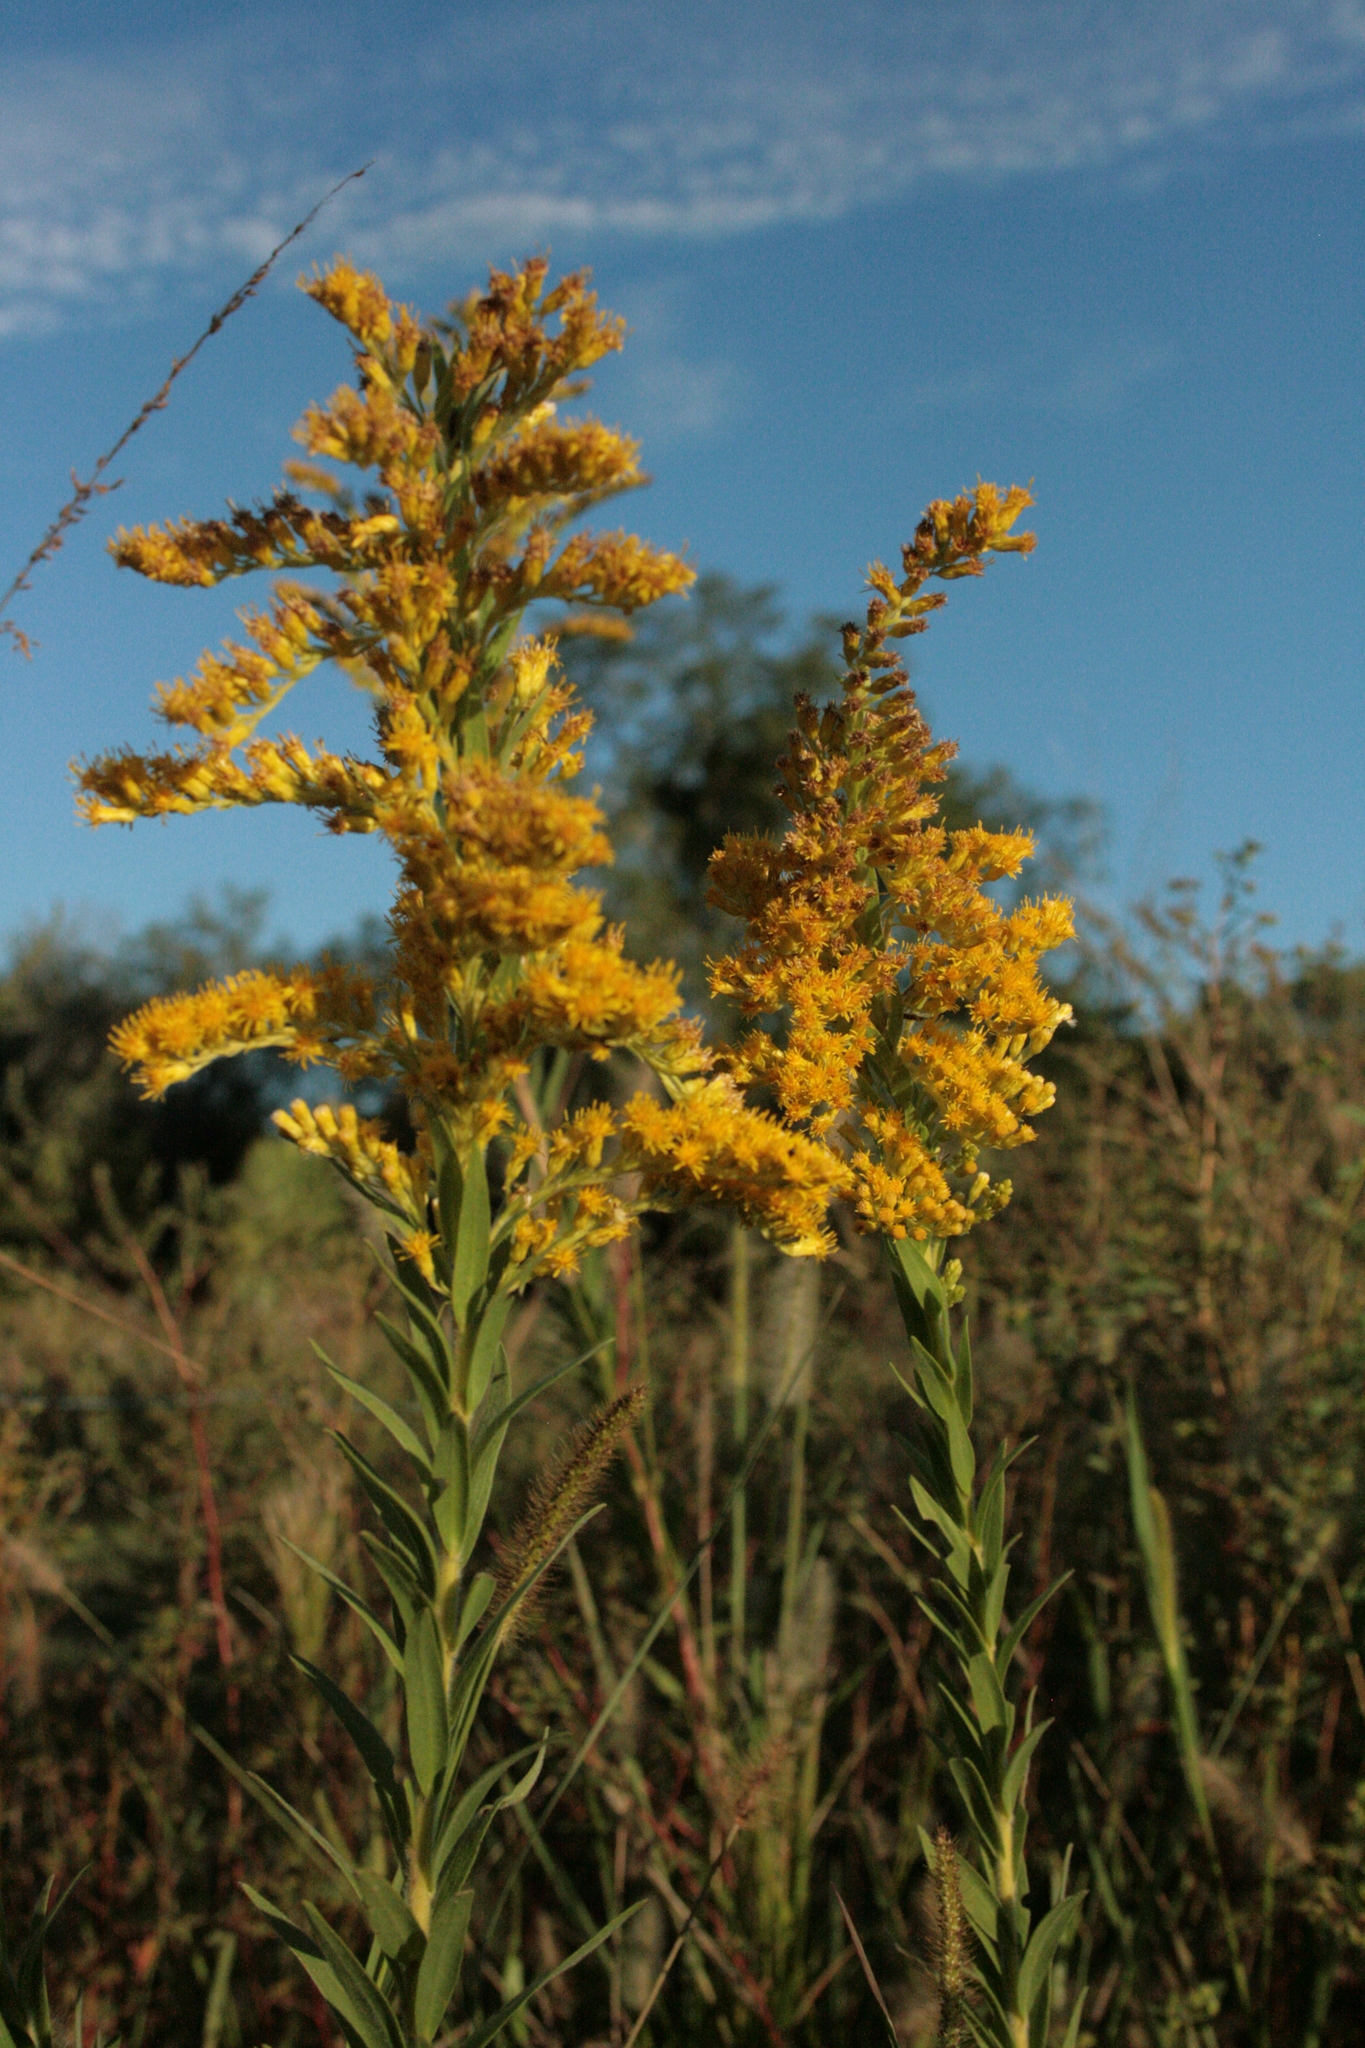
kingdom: Plantae
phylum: Tracheophyta
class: Magnoliopsida
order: Asterales
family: Asteraceae
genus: Solidago
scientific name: Solidago chilensis
